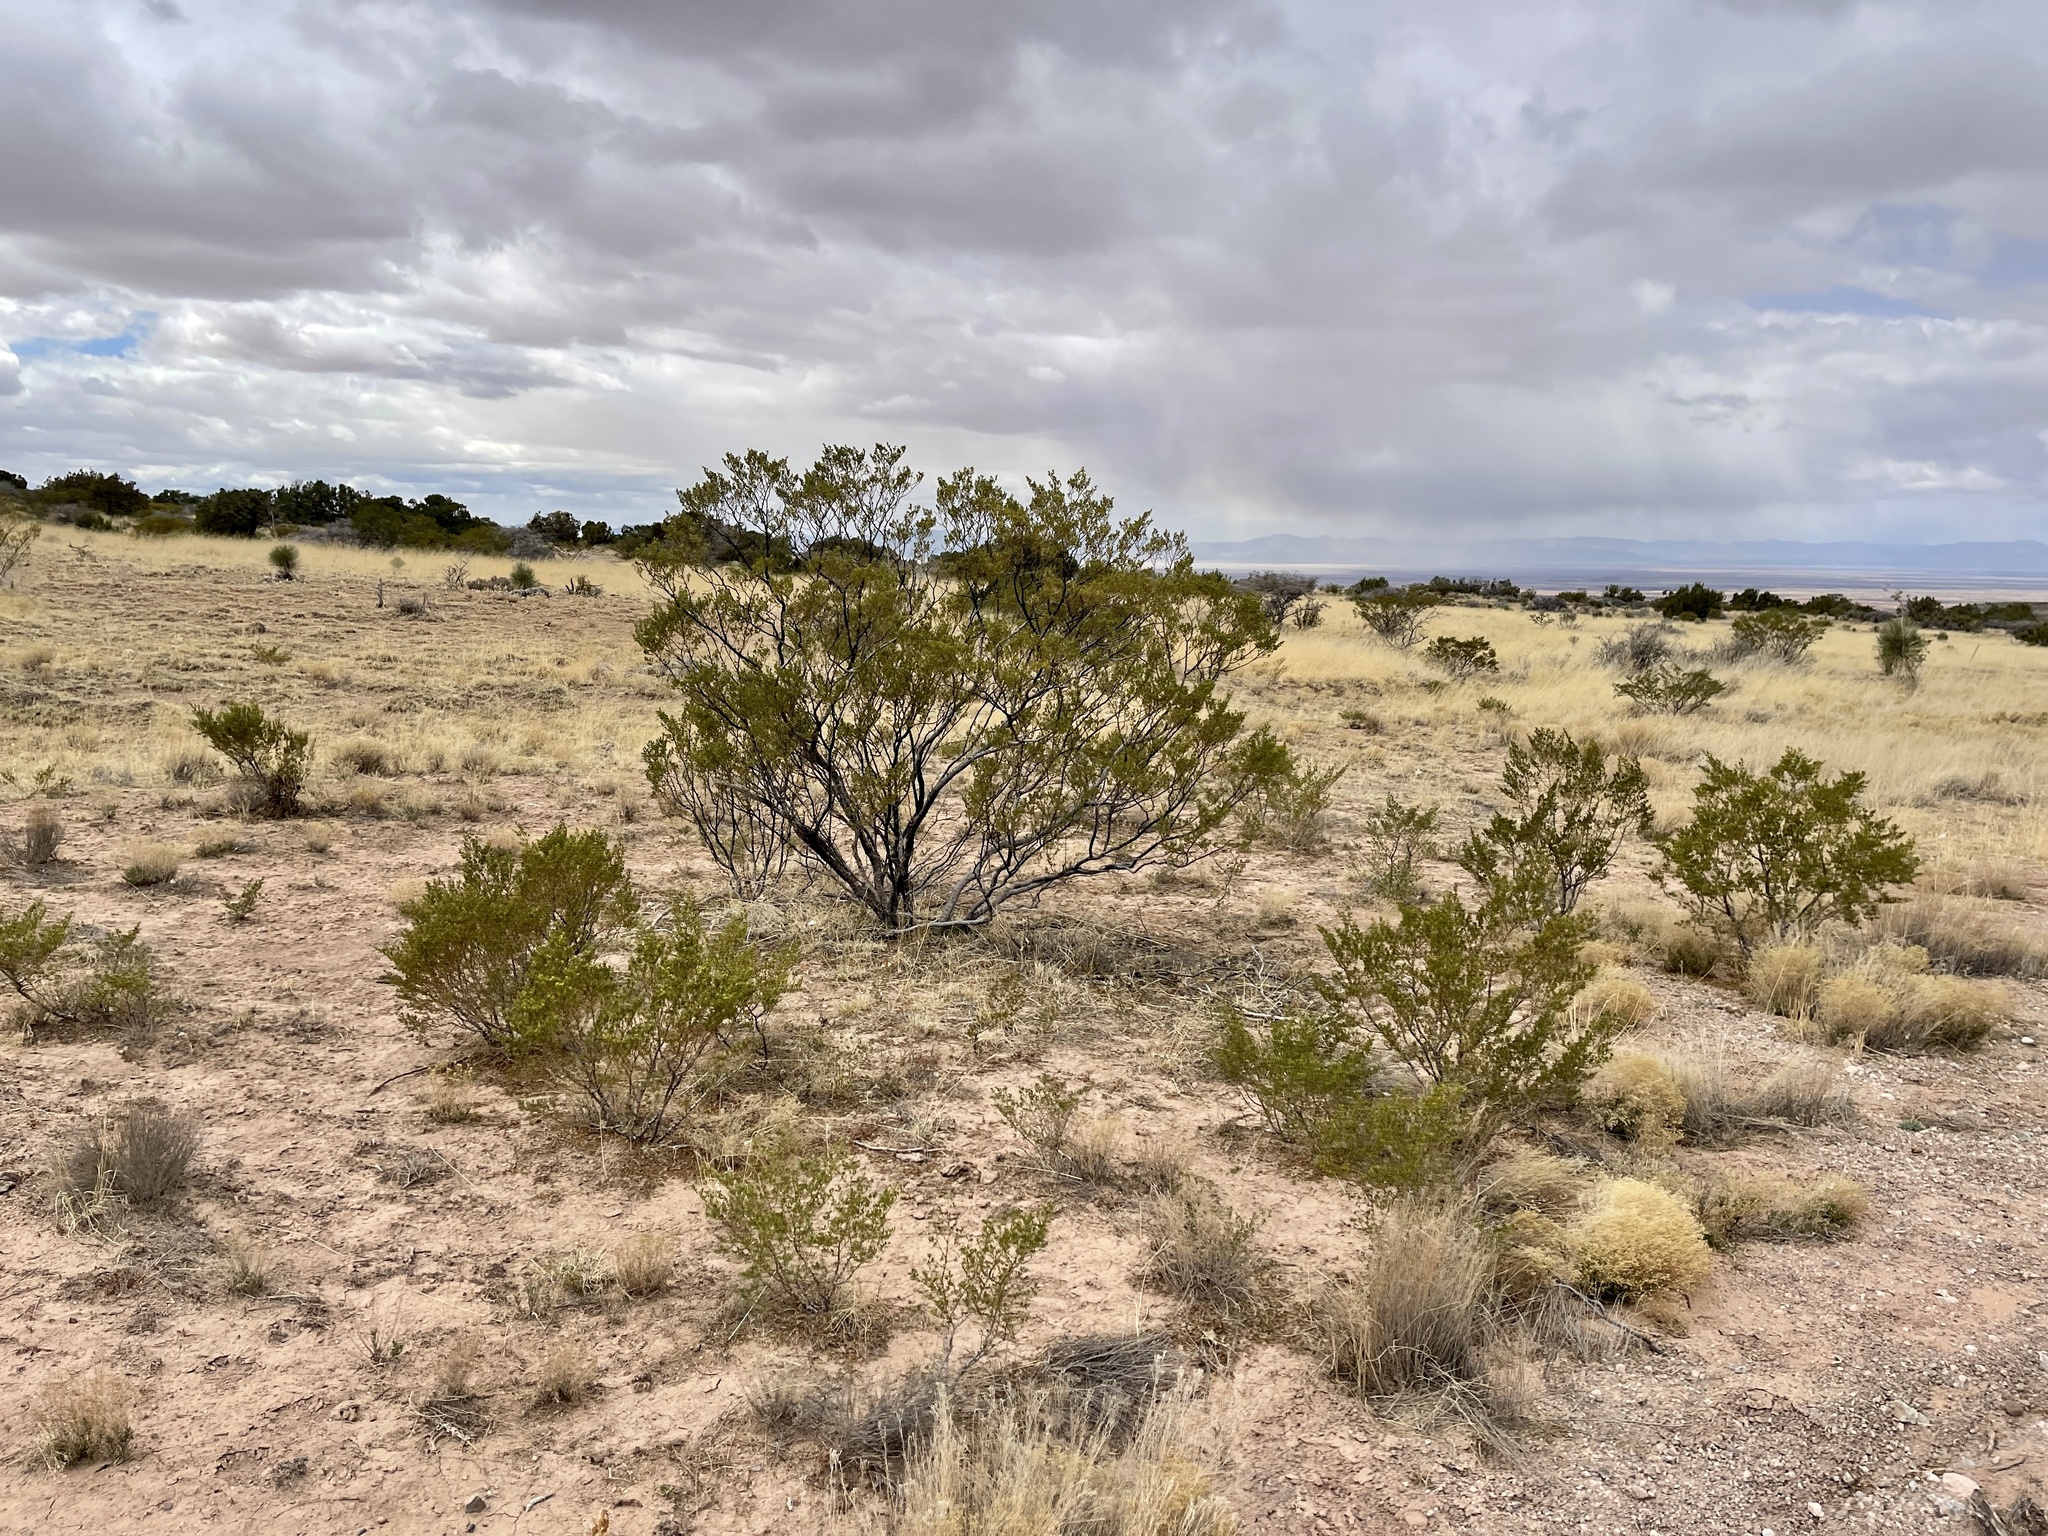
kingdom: Plantae
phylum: Tracheophyta
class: Magnoliopsida
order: Zygophyllales
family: Zygophyllaceae
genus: Larrea
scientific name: Larrea tridentata
